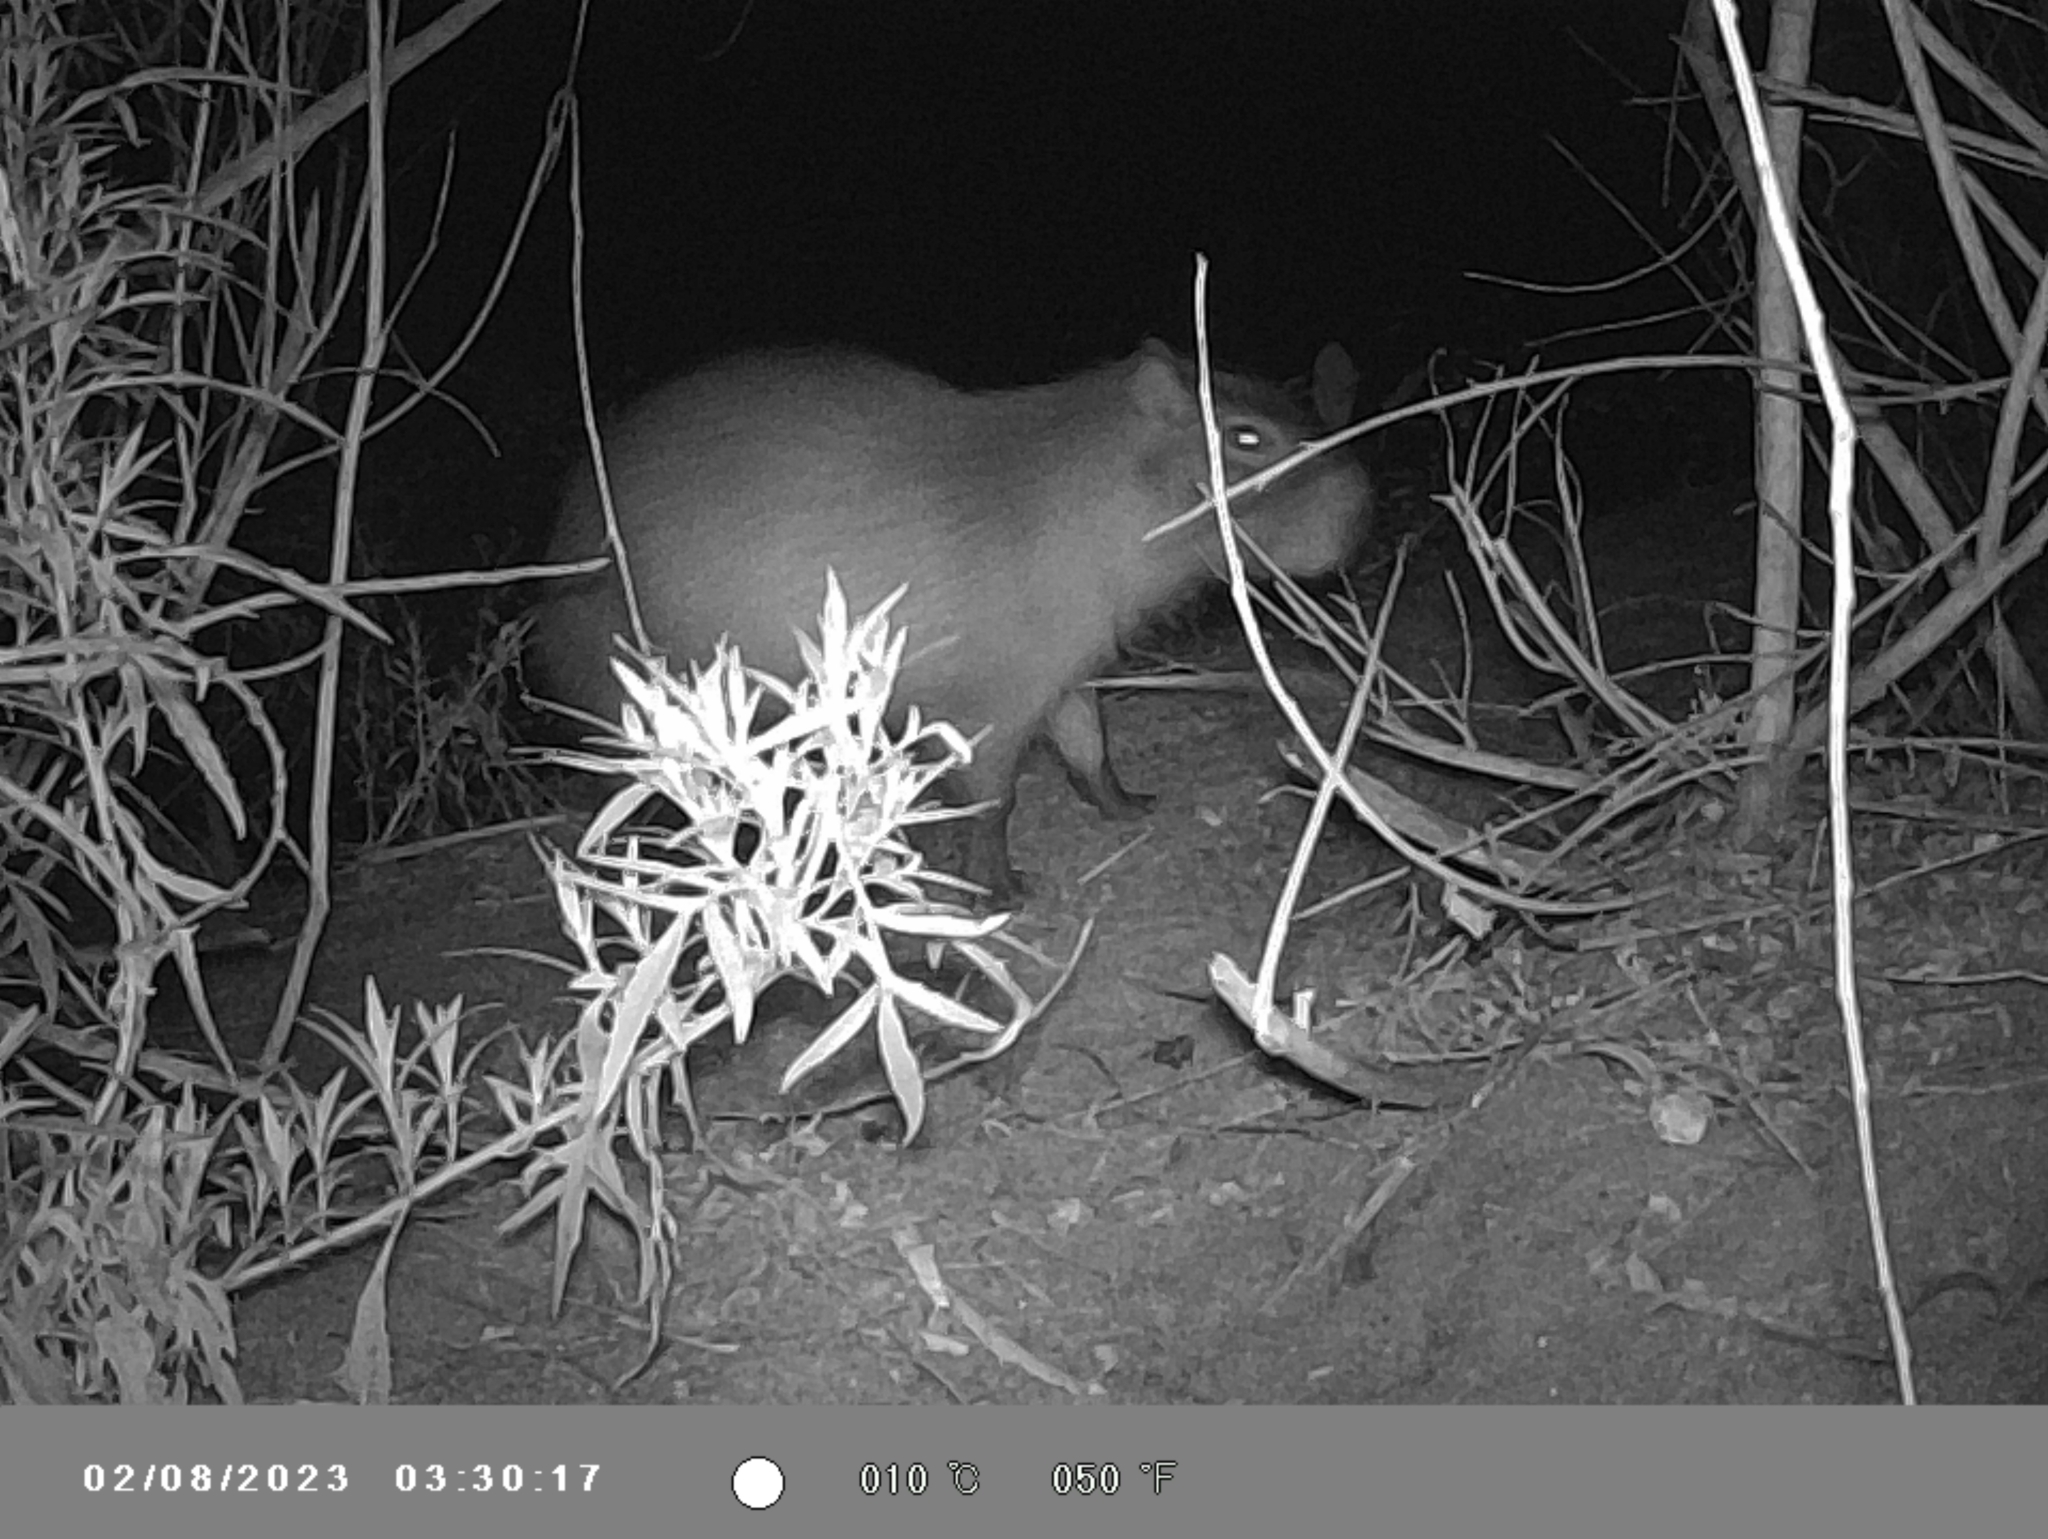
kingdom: Animalia
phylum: Chordata
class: Mammalia
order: Rodentia
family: Caviidae
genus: Hydrochoerus
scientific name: Hydrochoerus hydrochaeris
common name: Capybara
